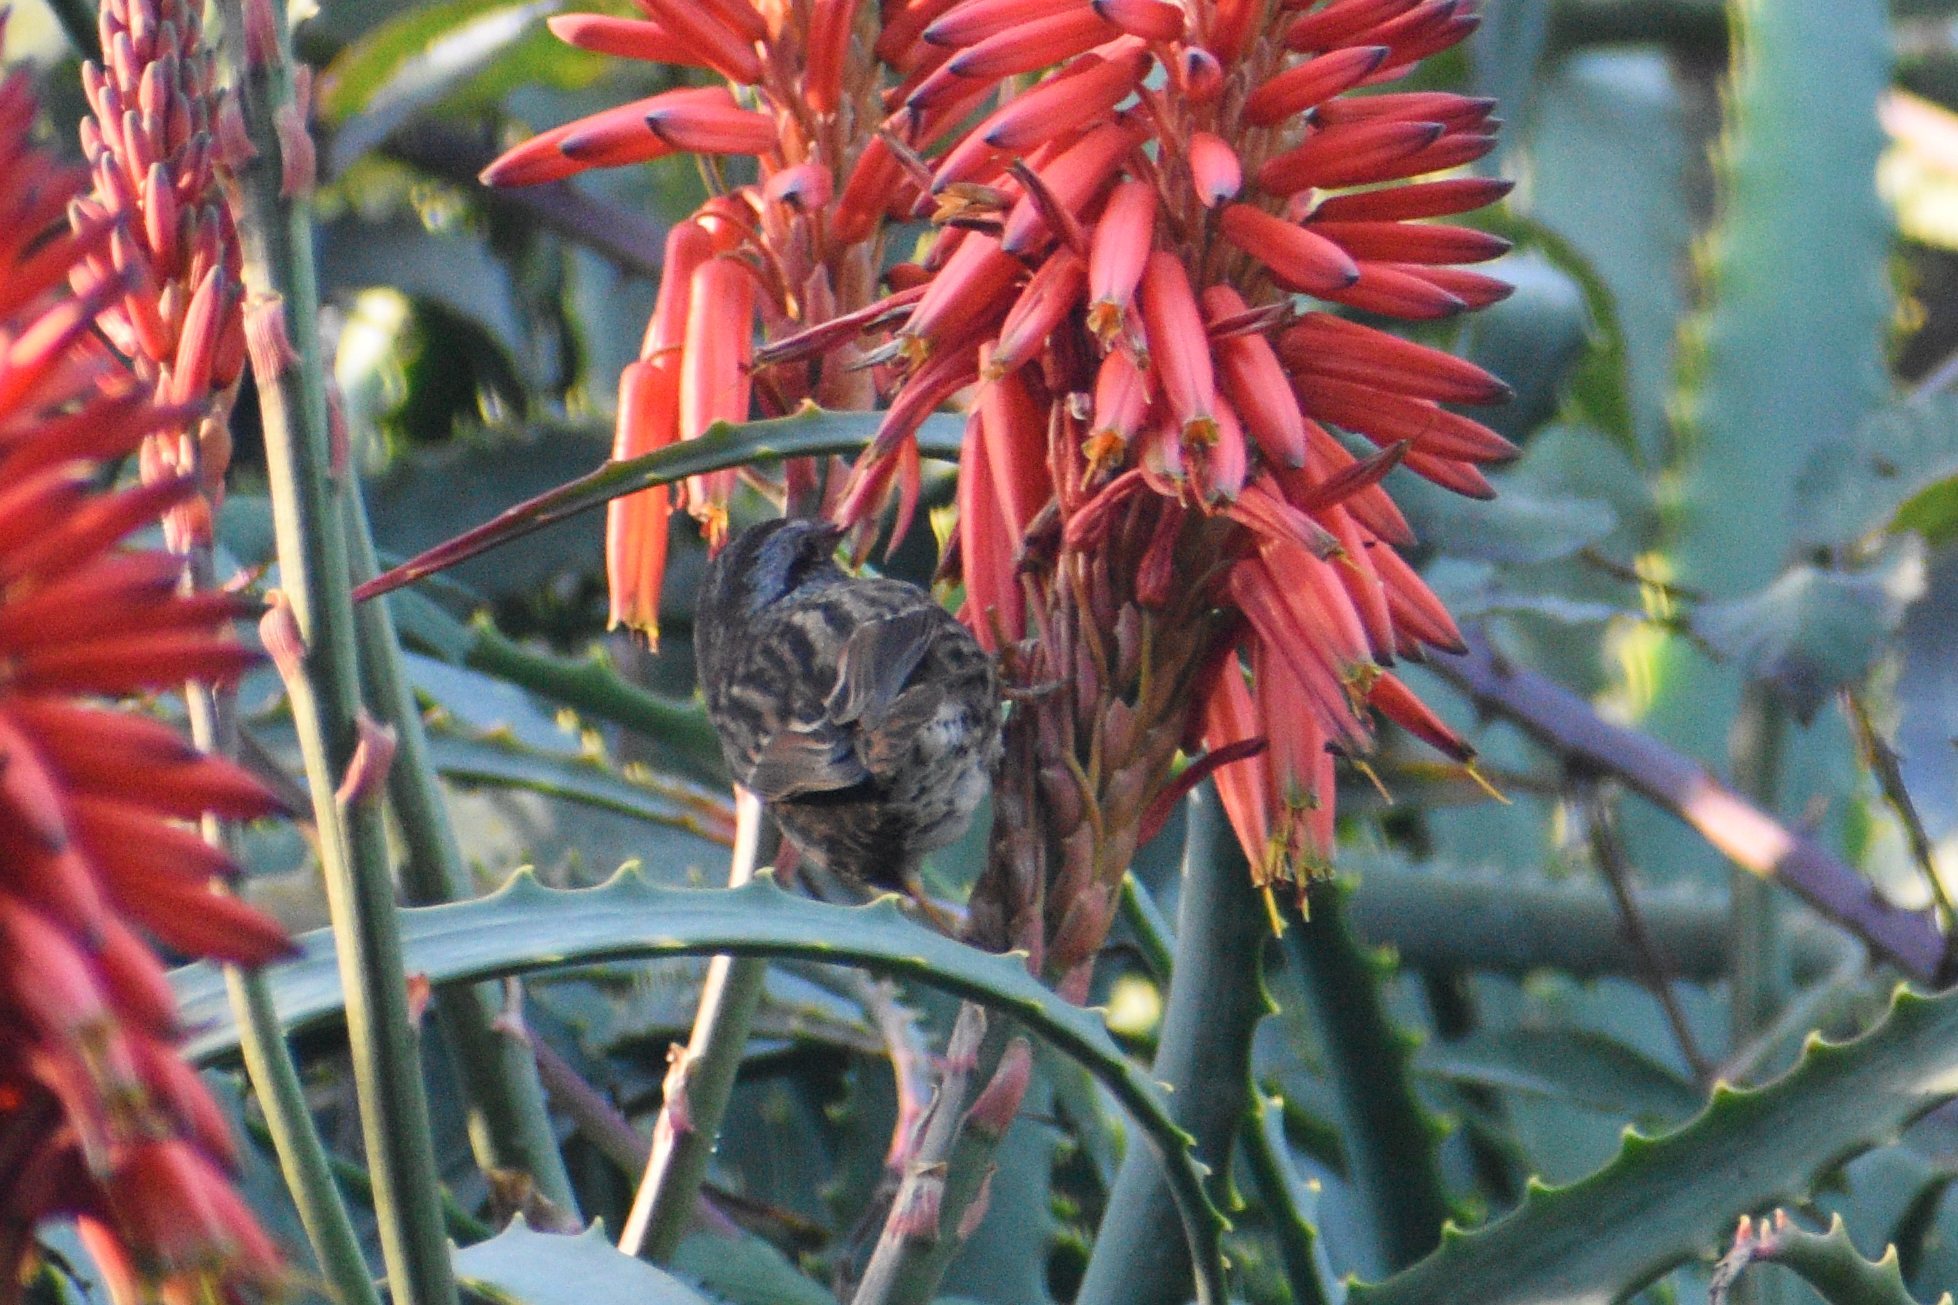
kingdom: Animalia
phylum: Chordata
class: Aves
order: Passeriformes
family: Passerellidae
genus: Melospiza
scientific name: Melospiza melodia
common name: Song sparrow
